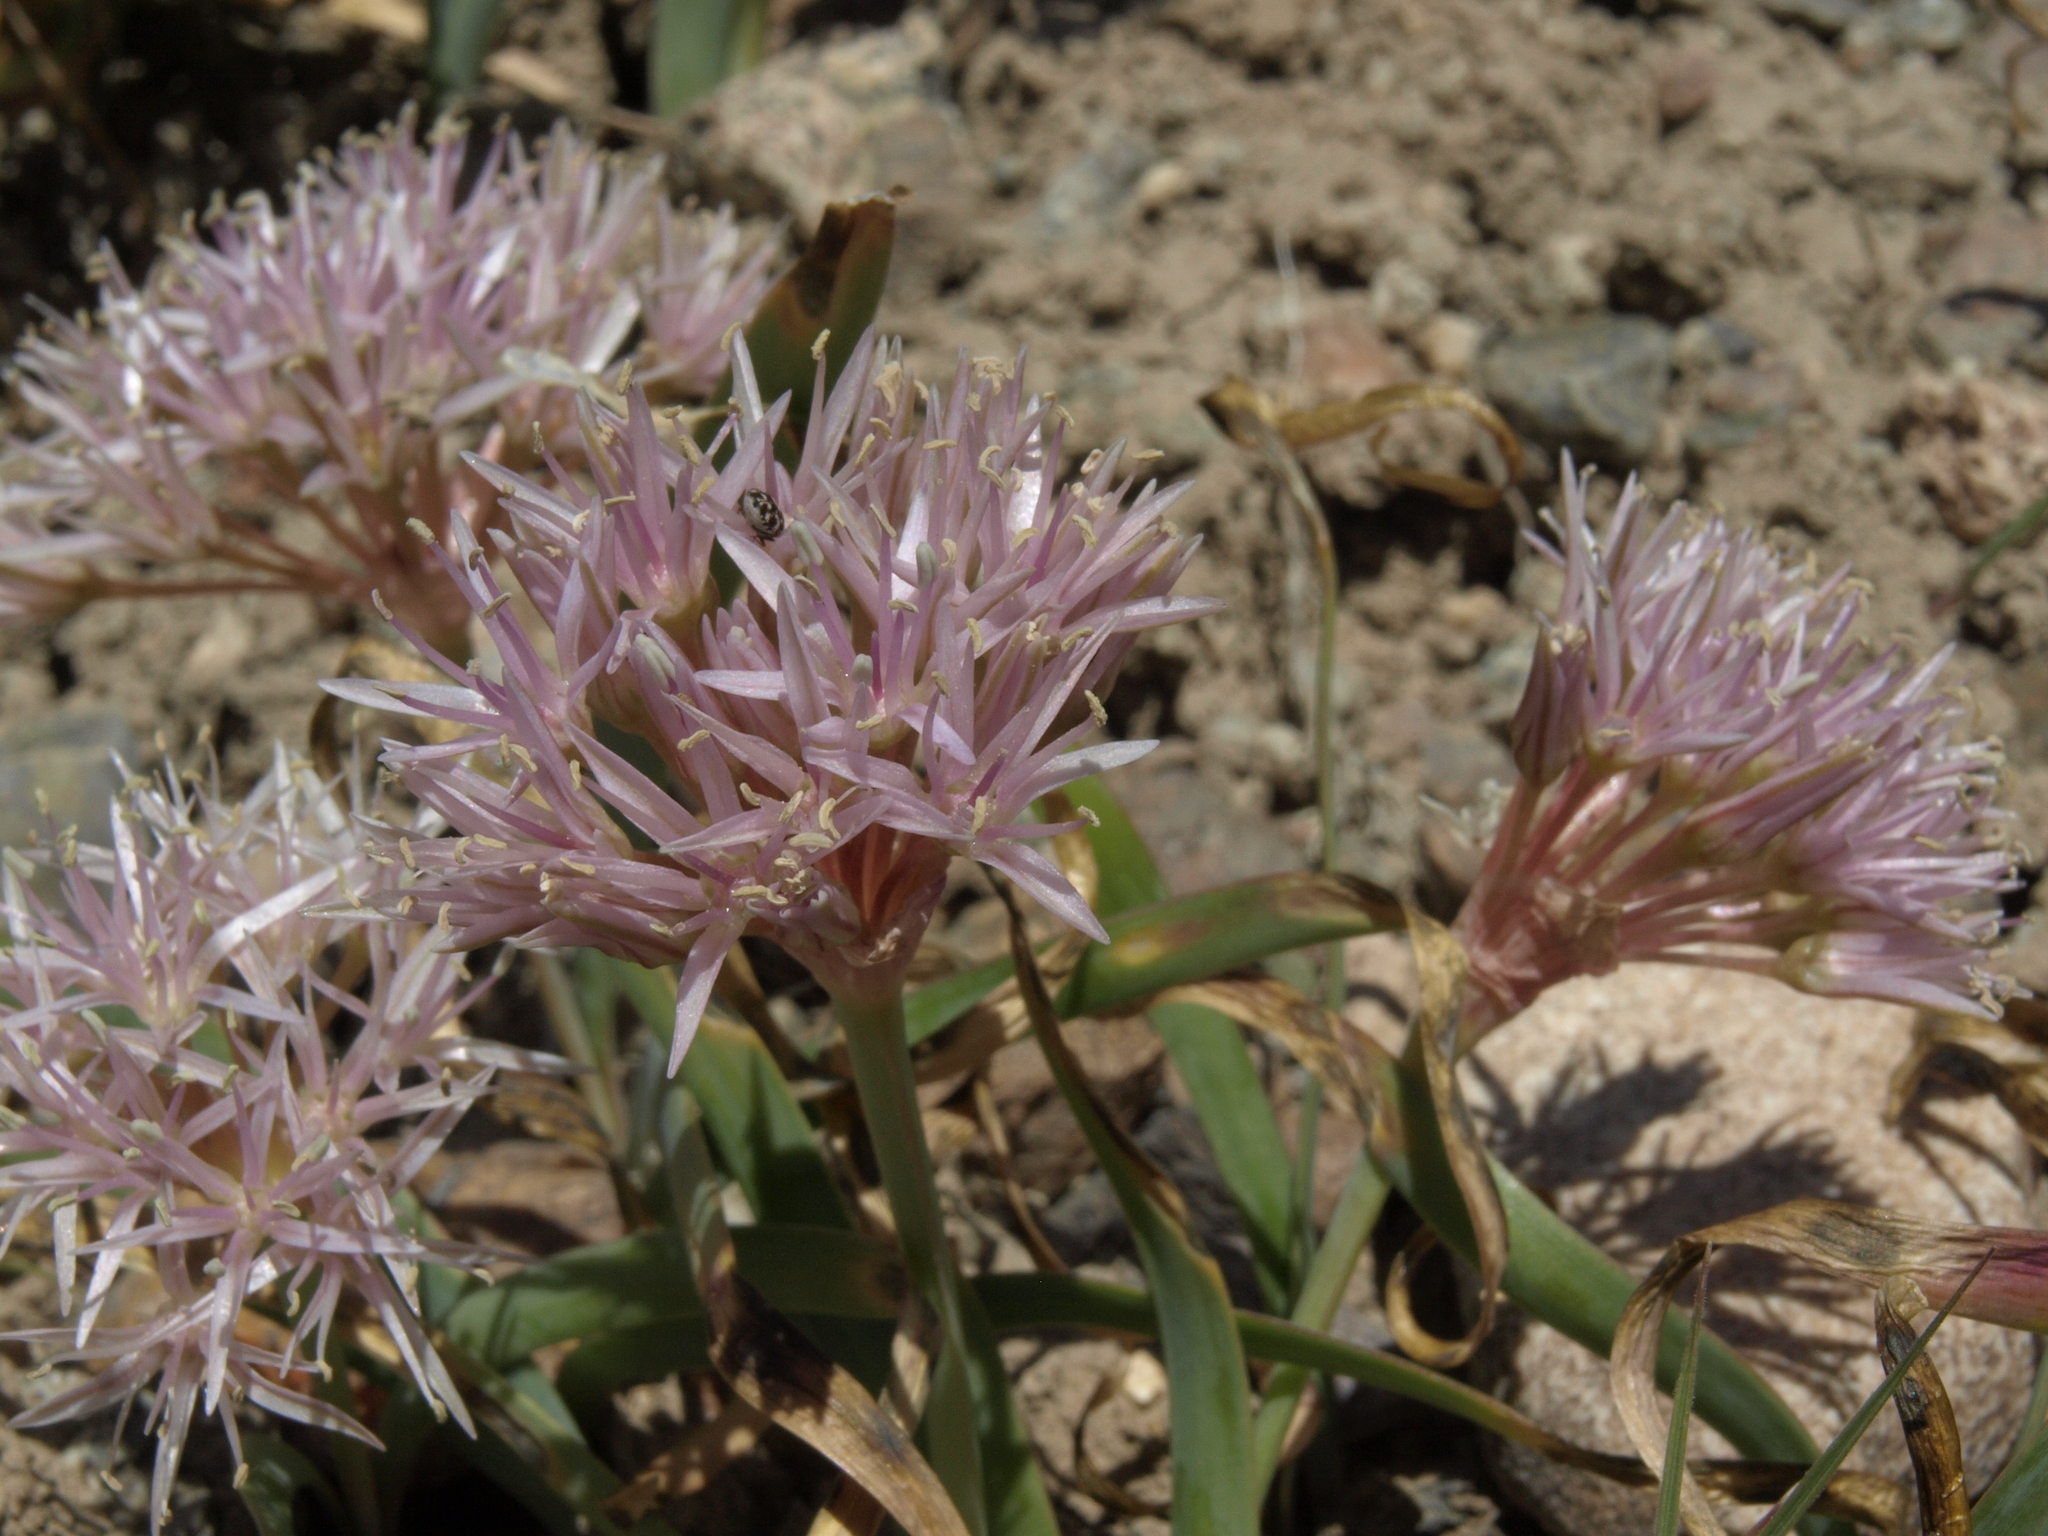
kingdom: Plantae
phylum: Tracheophyta
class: Liliopsida
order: Asparagales
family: Amaryllidaceae
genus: Allium
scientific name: Allium anceps
